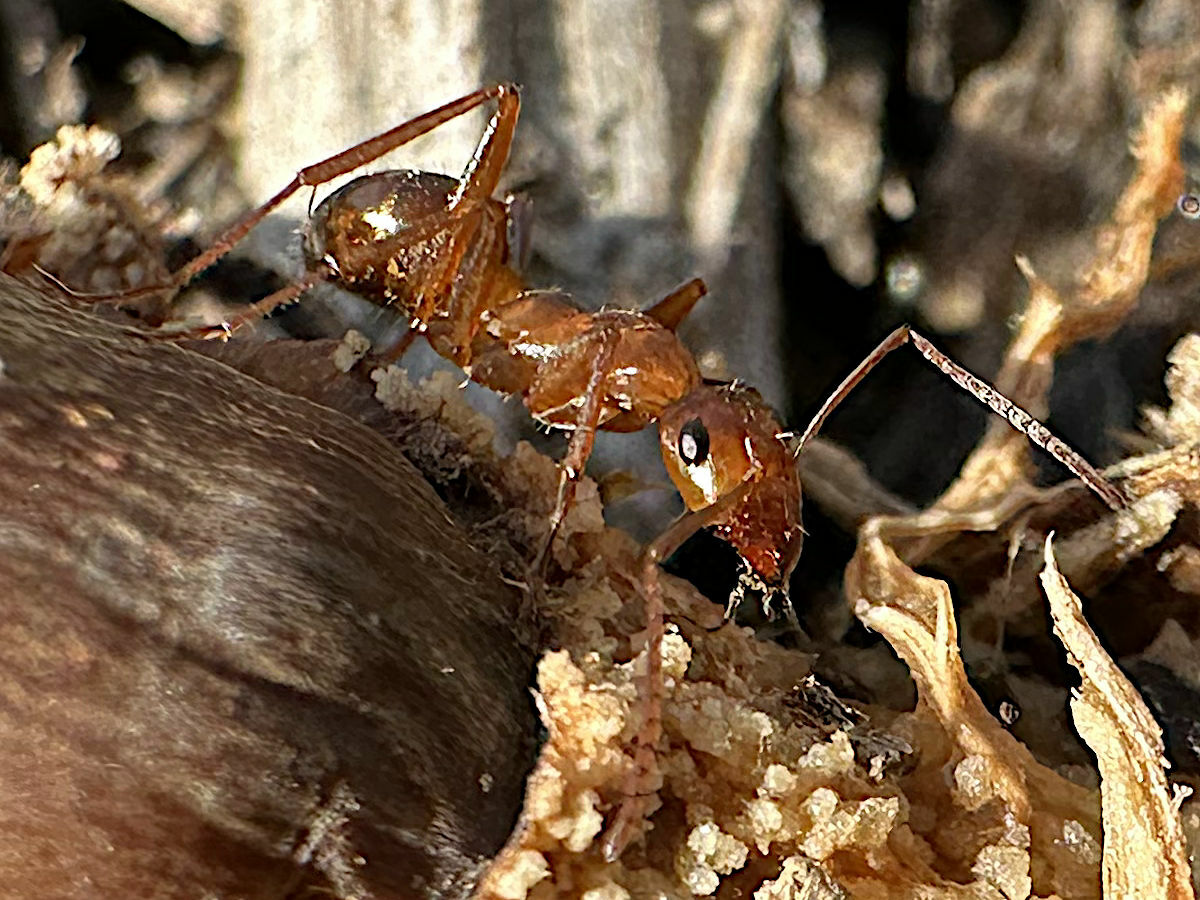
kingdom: Animalia
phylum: Arthropoda
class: Insecta
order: Hymenoptera
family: Formicidae
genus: Formica
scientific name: Formica pallidefulva
